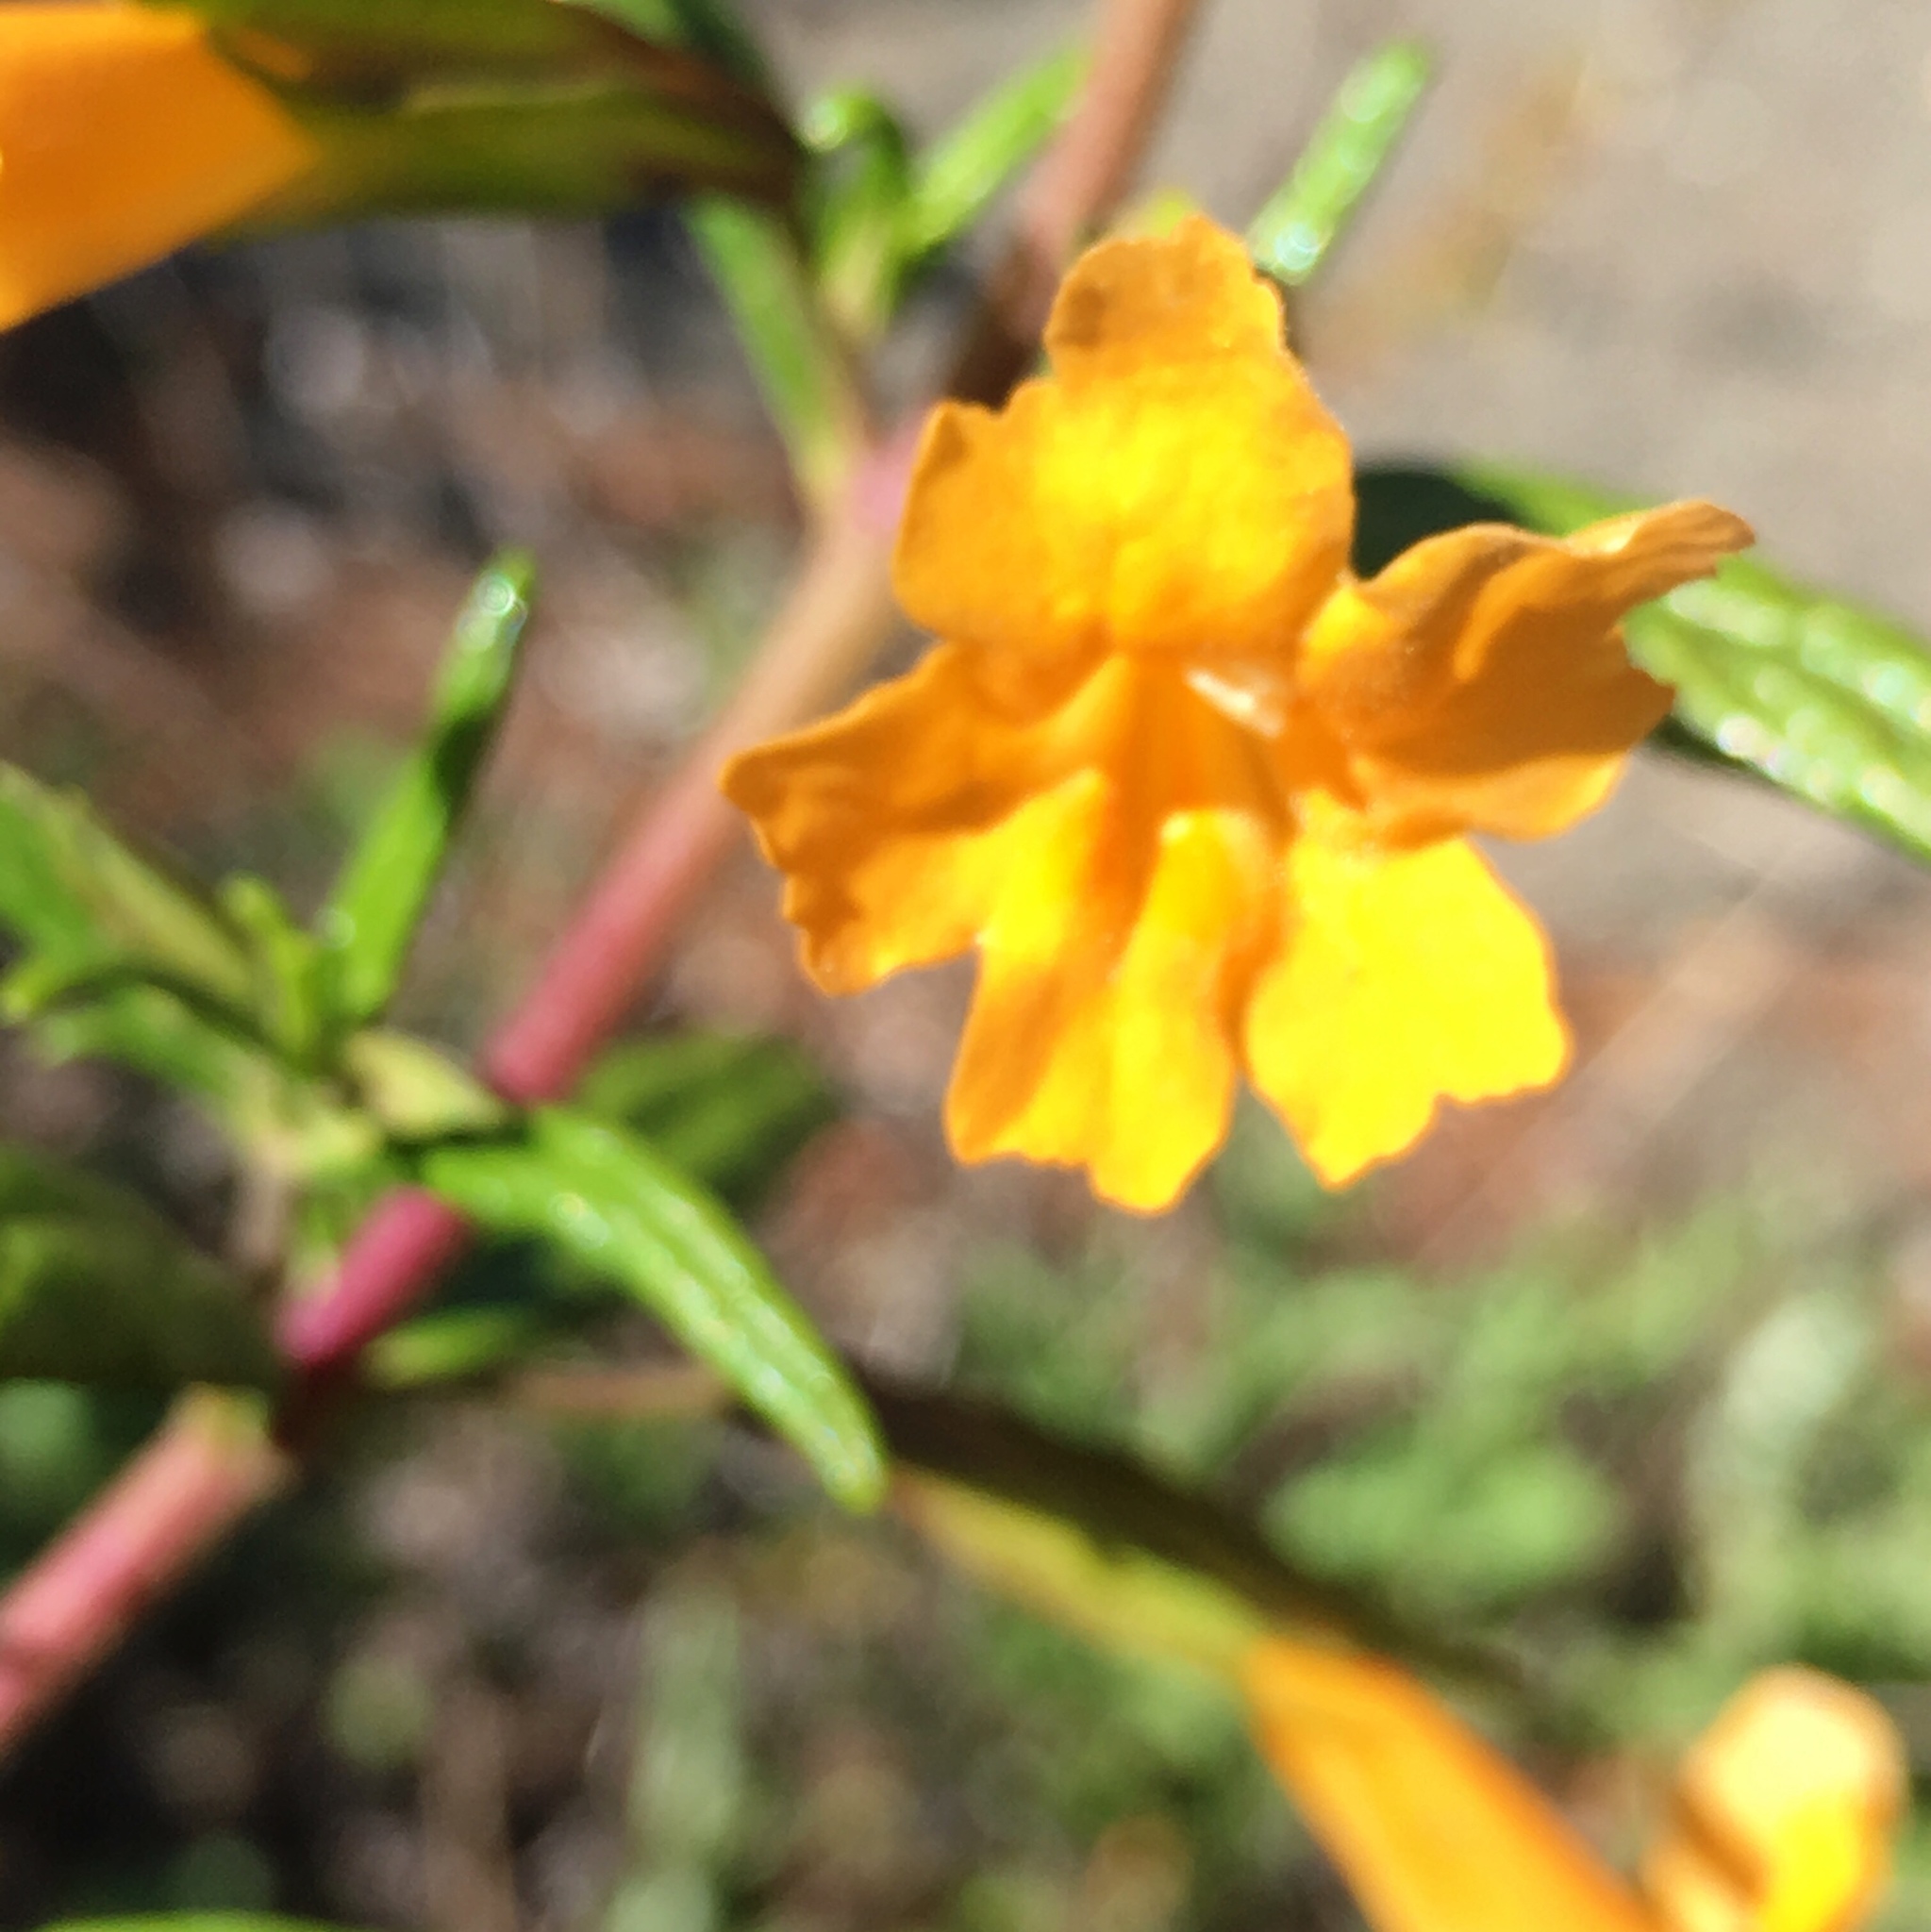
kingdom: Plantae
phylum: Tracheophyta
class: Magnoliopsida
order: Lamiales
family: Phrymaceae
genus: Diplacus
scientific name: Diplacus aurantiacus
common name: Bush monkey-flower
